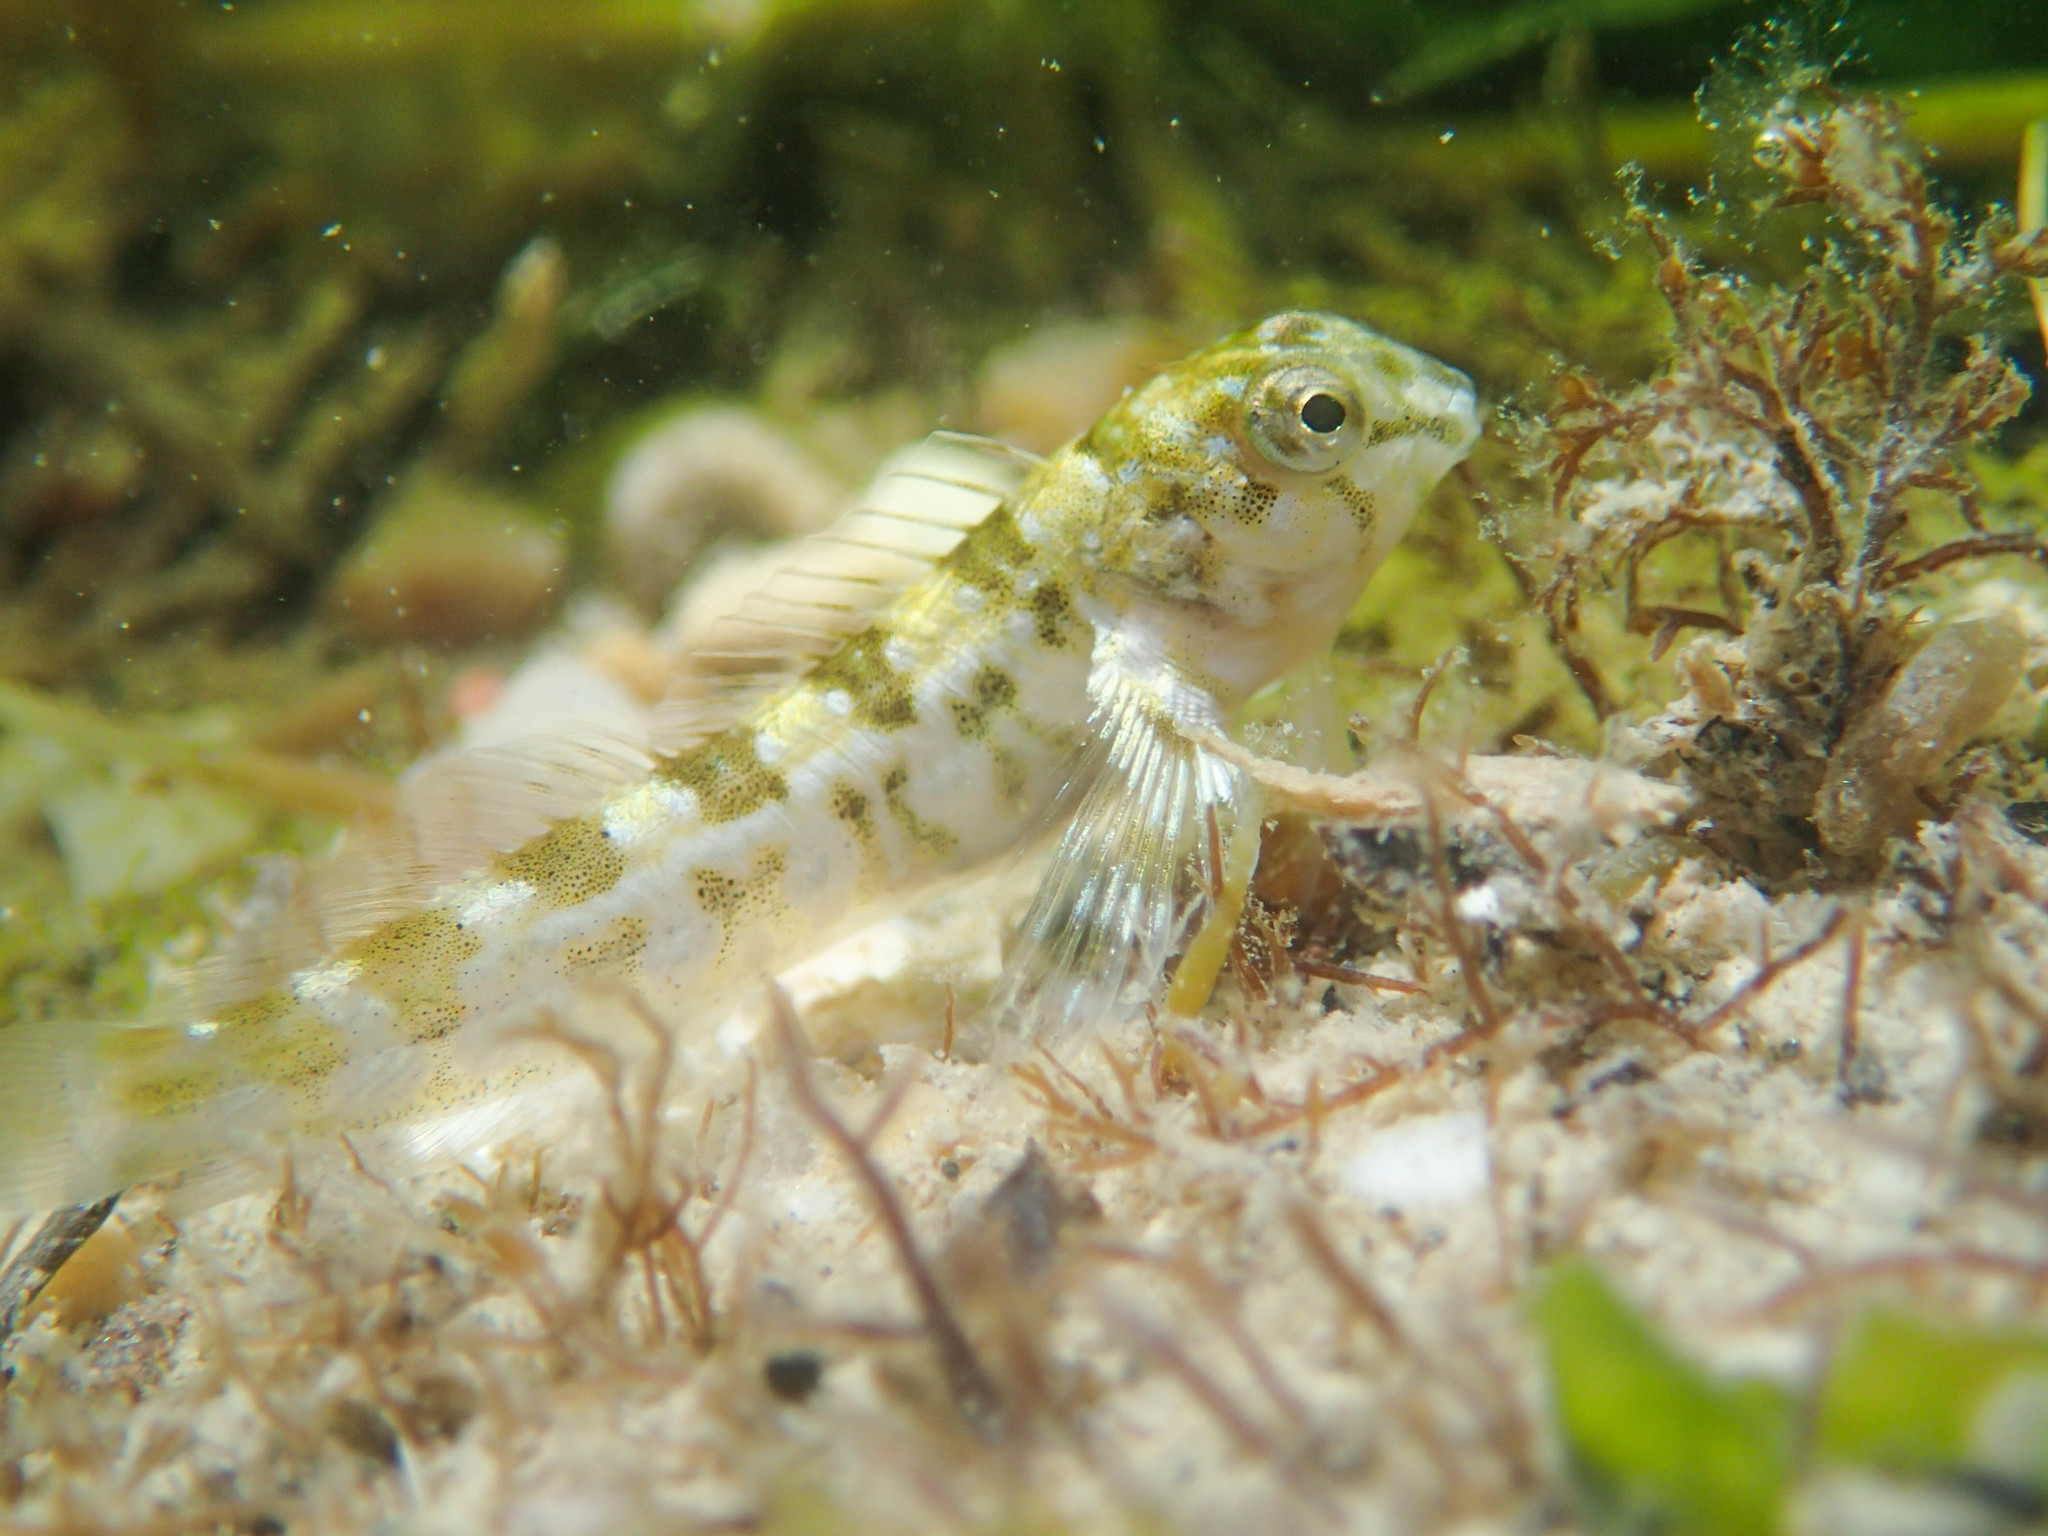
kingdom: Animalia
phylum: Chordata
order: Perciformes
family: Blenniidae
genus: Lipophrys
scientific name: Lipophrys trigloides
